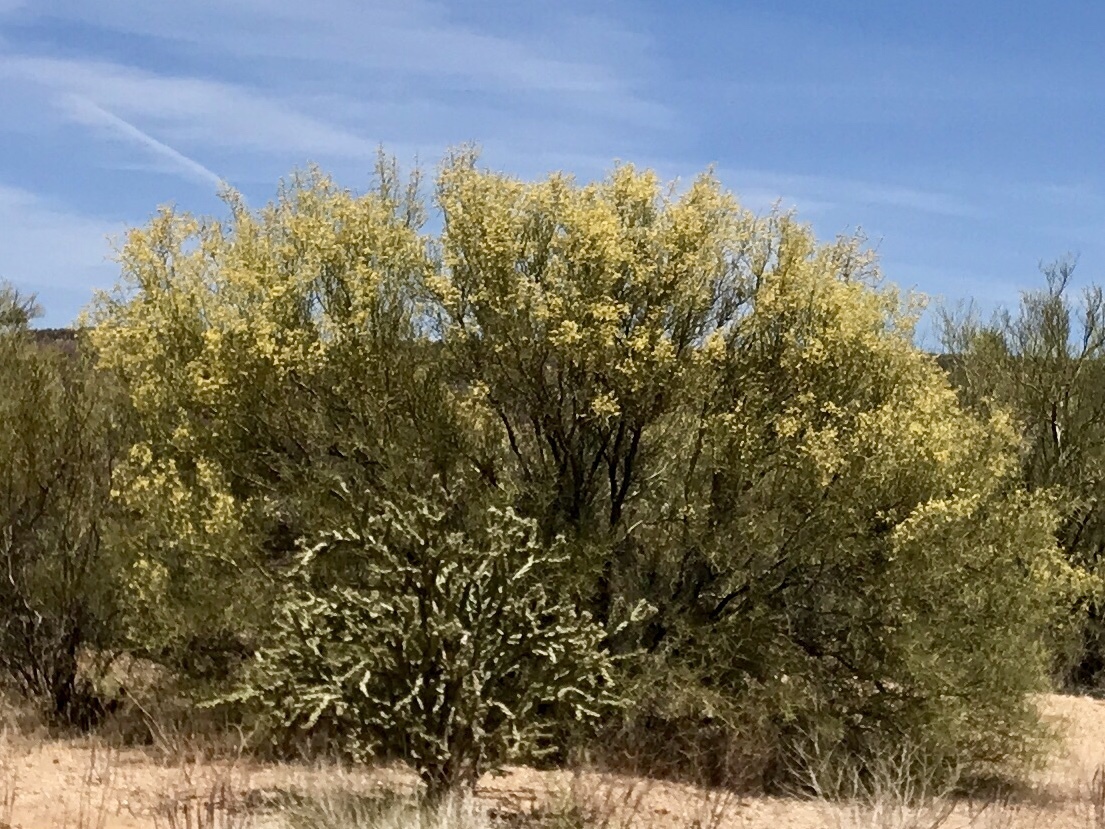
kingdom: Plantae
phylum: Tracheophyta
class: Magnoliopsida
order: Fabales
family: Fabaceae
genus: Parkinsonia
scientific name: Parkinsonia microphylla
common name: Yellow paloverde
